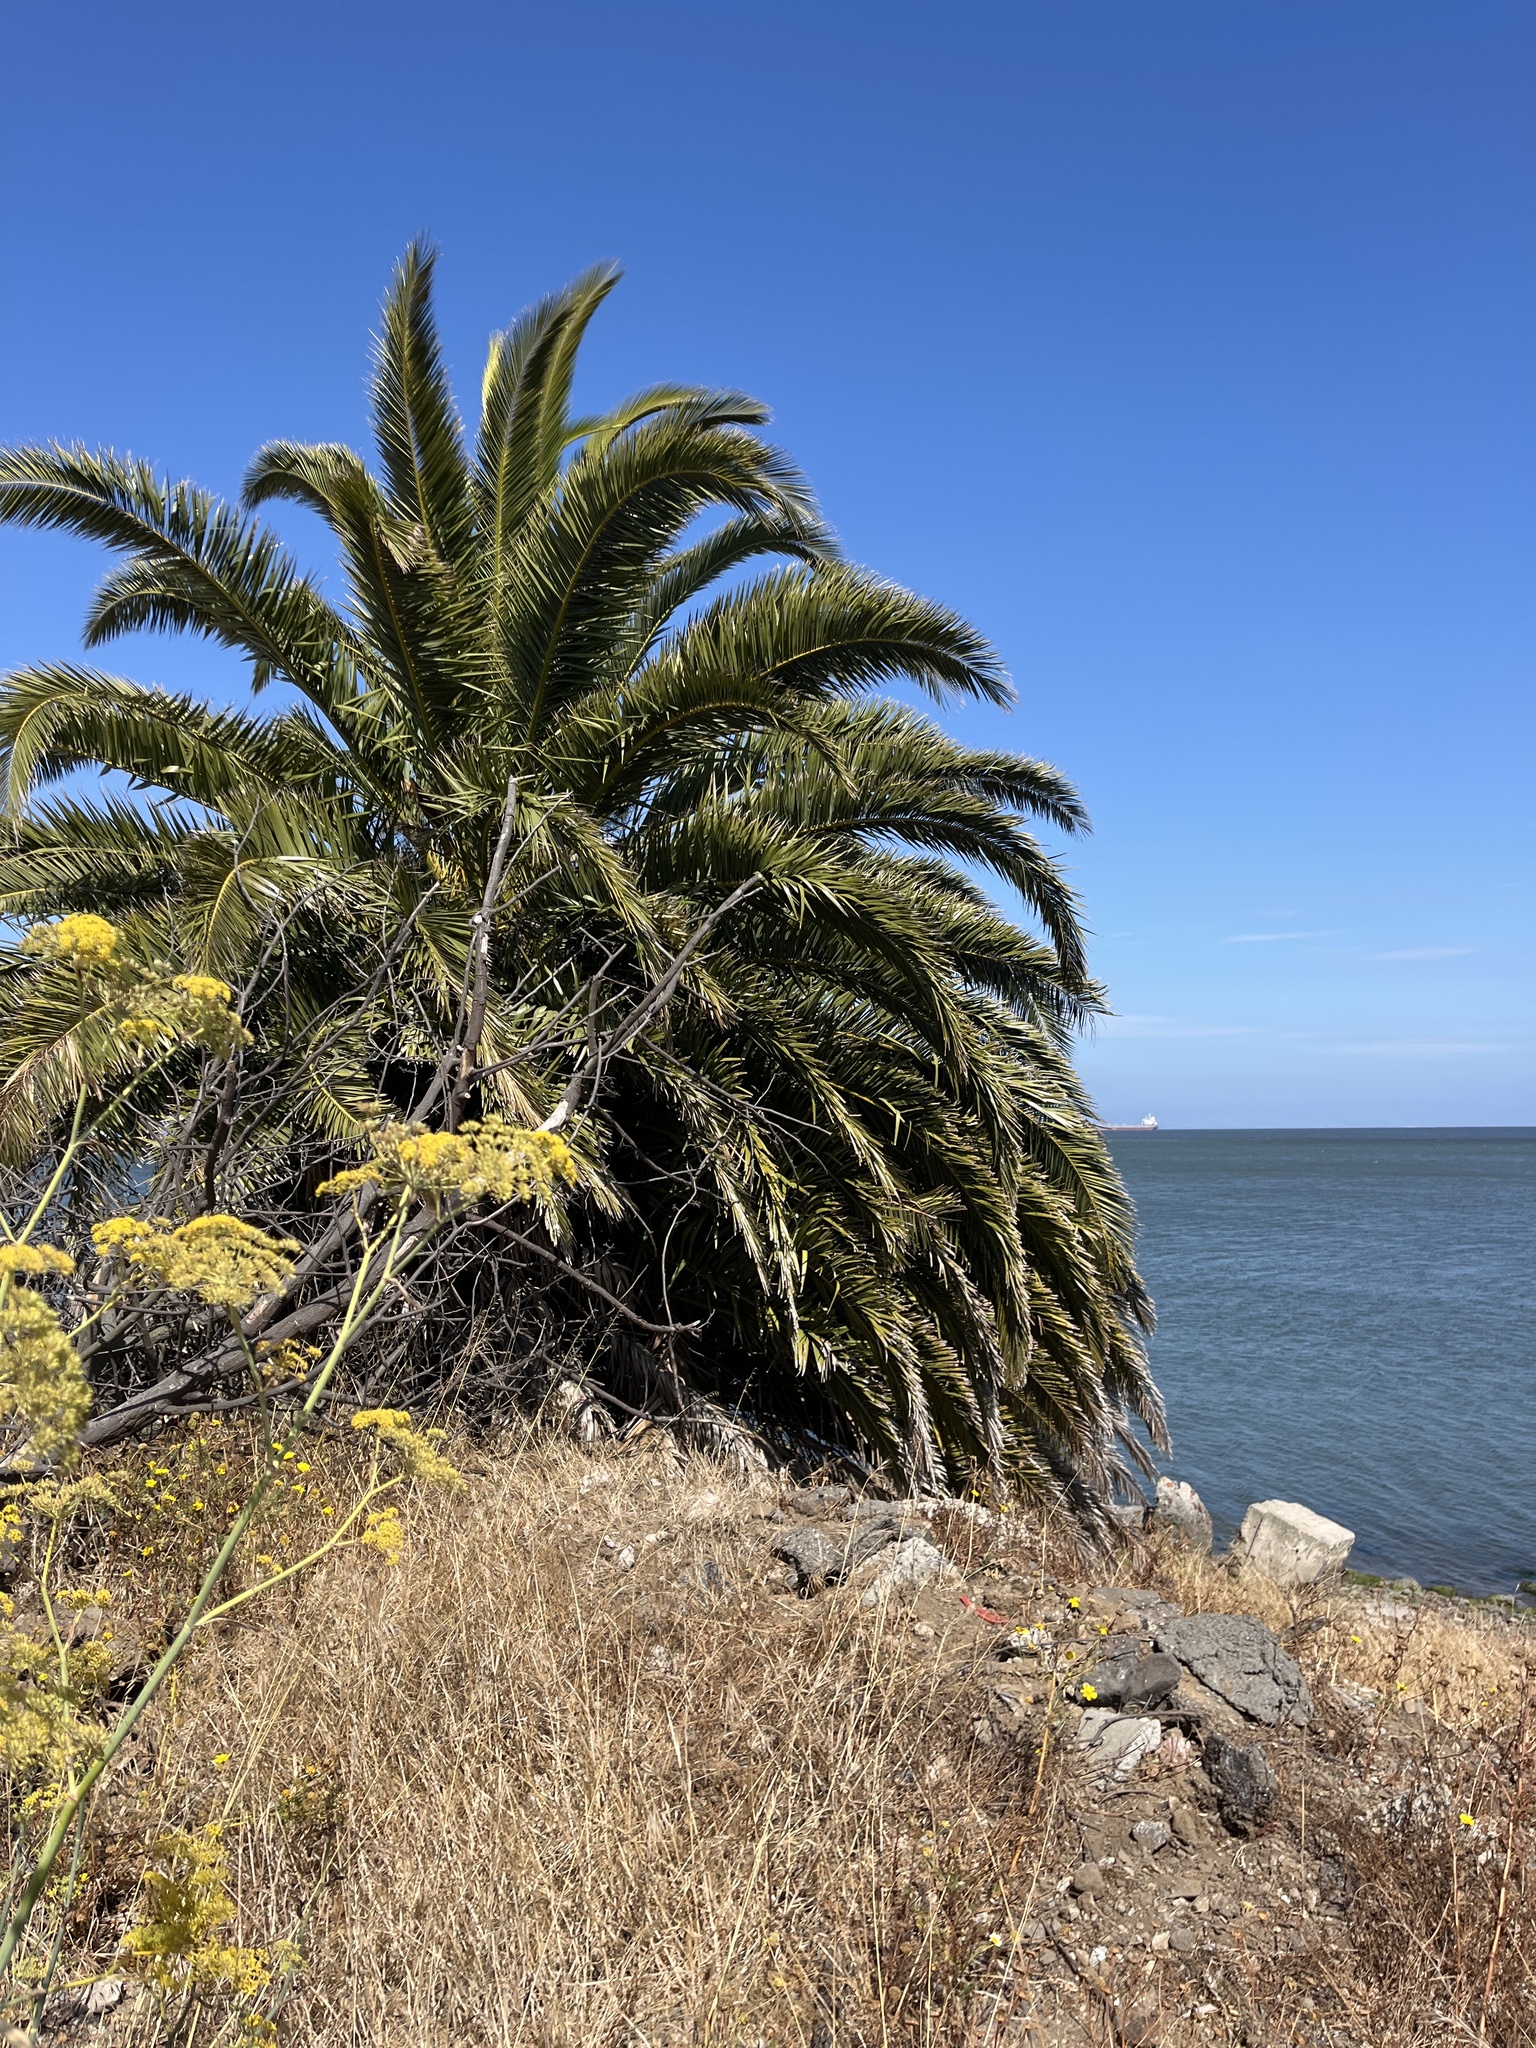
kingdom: Plantae
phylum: Tracheophyta
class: Liliopsida
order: Arecales
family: Arecaceae
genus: Phoenix
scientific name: Phoenix canariensis
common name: Canary island date palm
